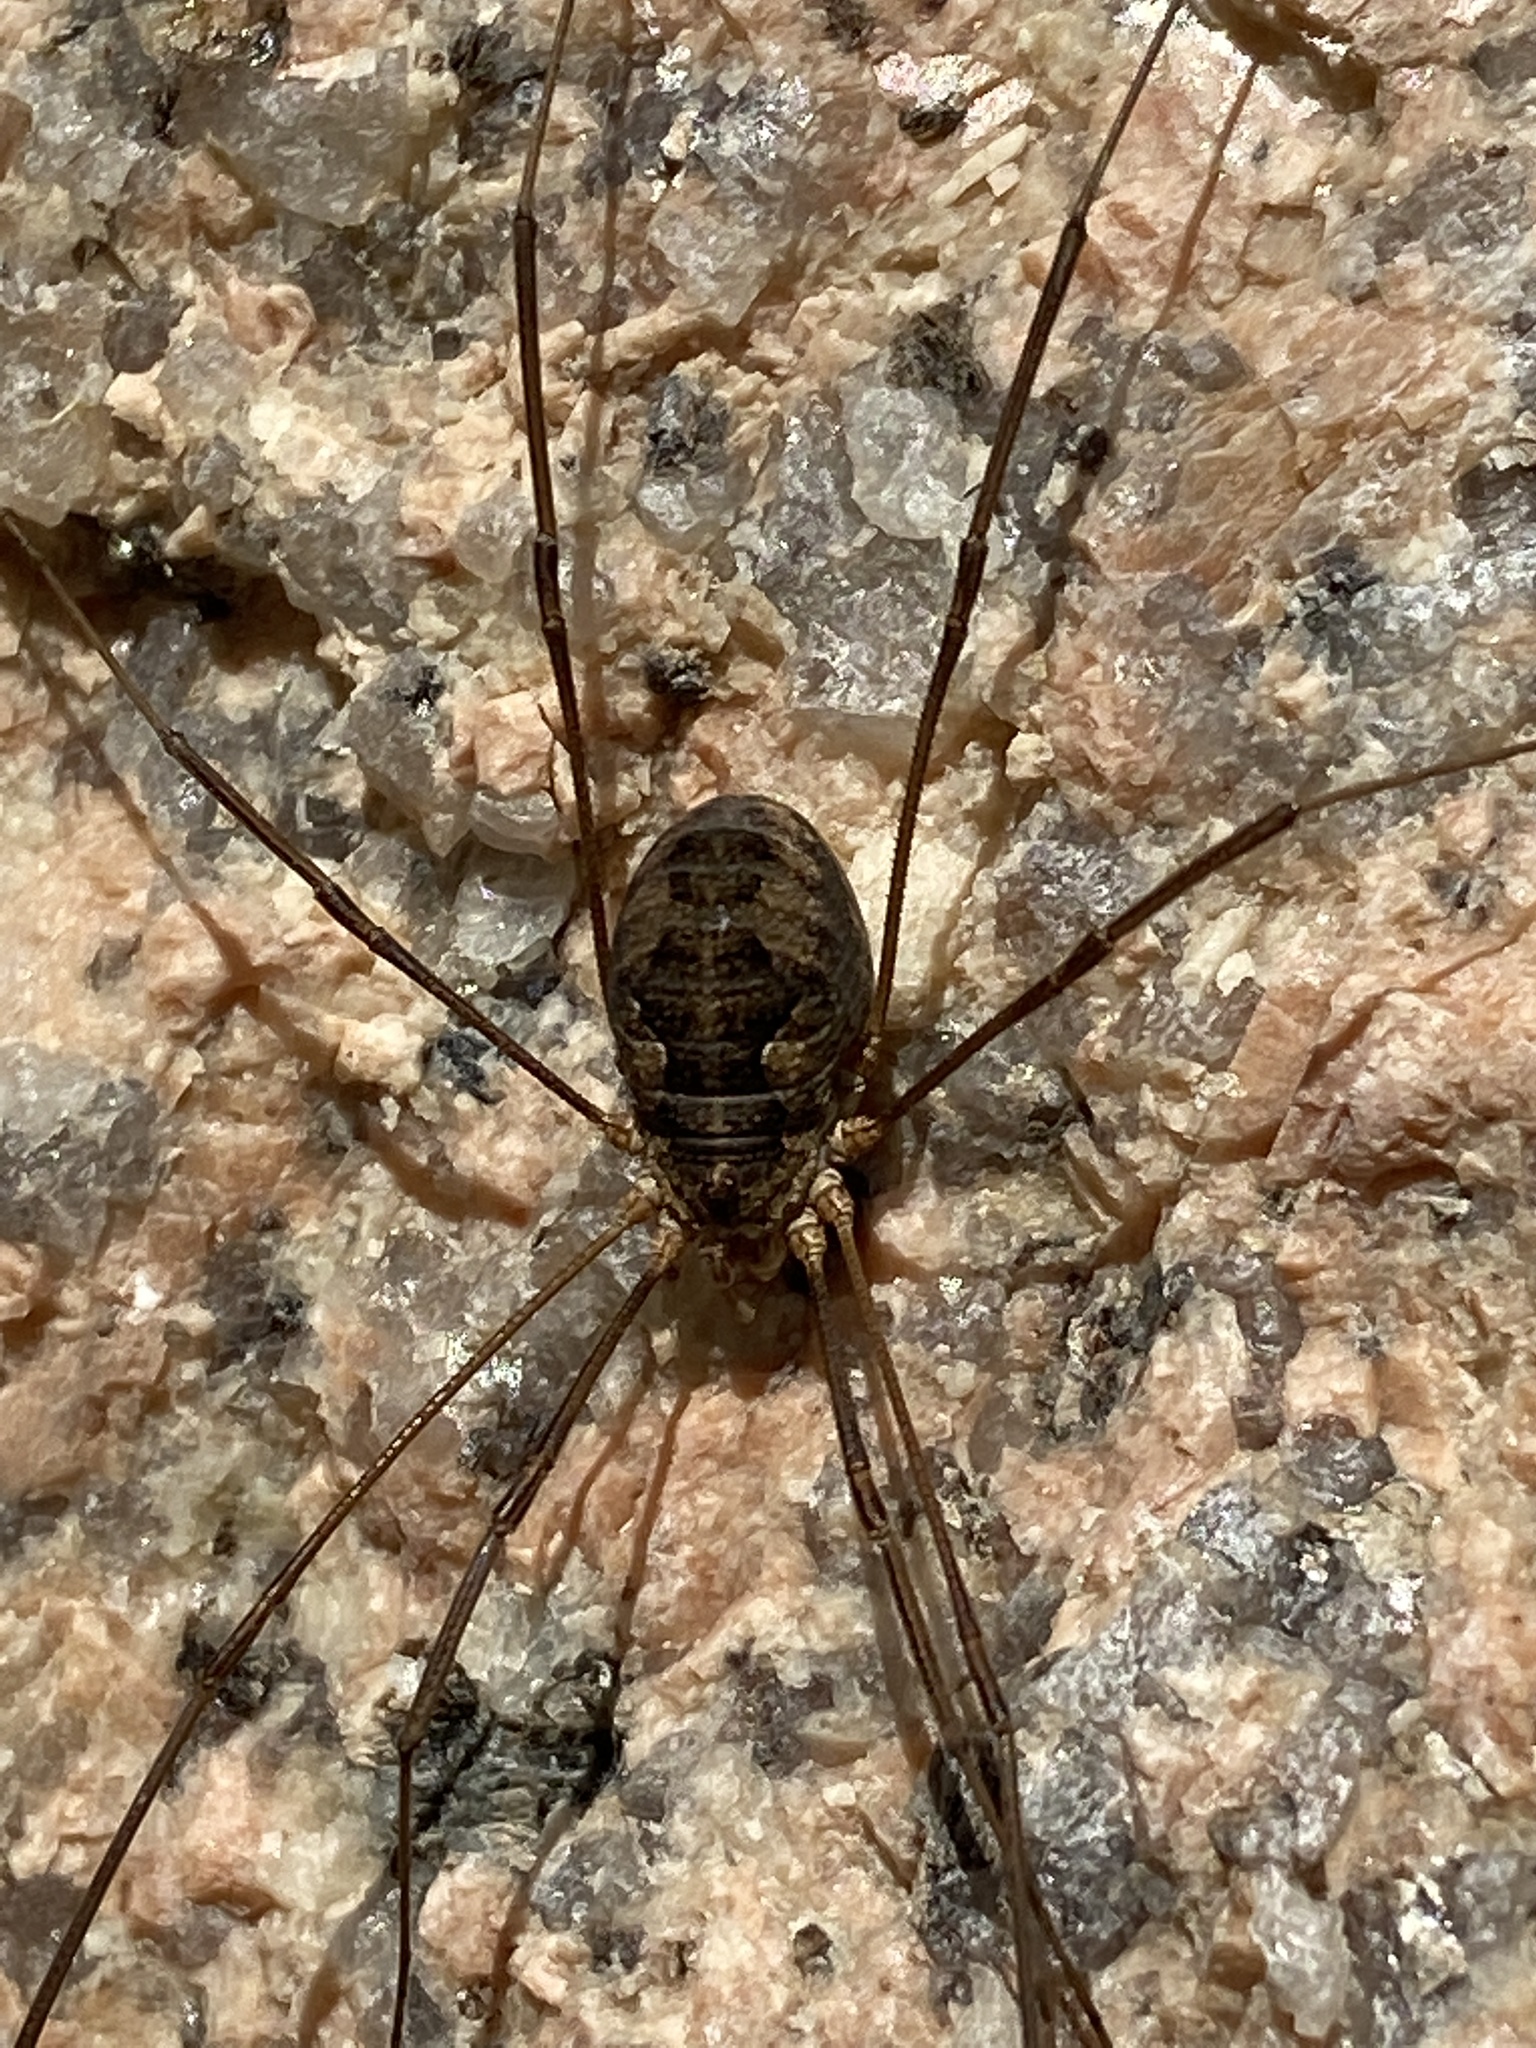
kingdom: Animalia
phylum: Arthropoda
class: Arachnida
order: Opiliones
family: Phalangiidae
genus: Phalangium
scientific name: Phalangium opilio
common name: Daddy longleg
